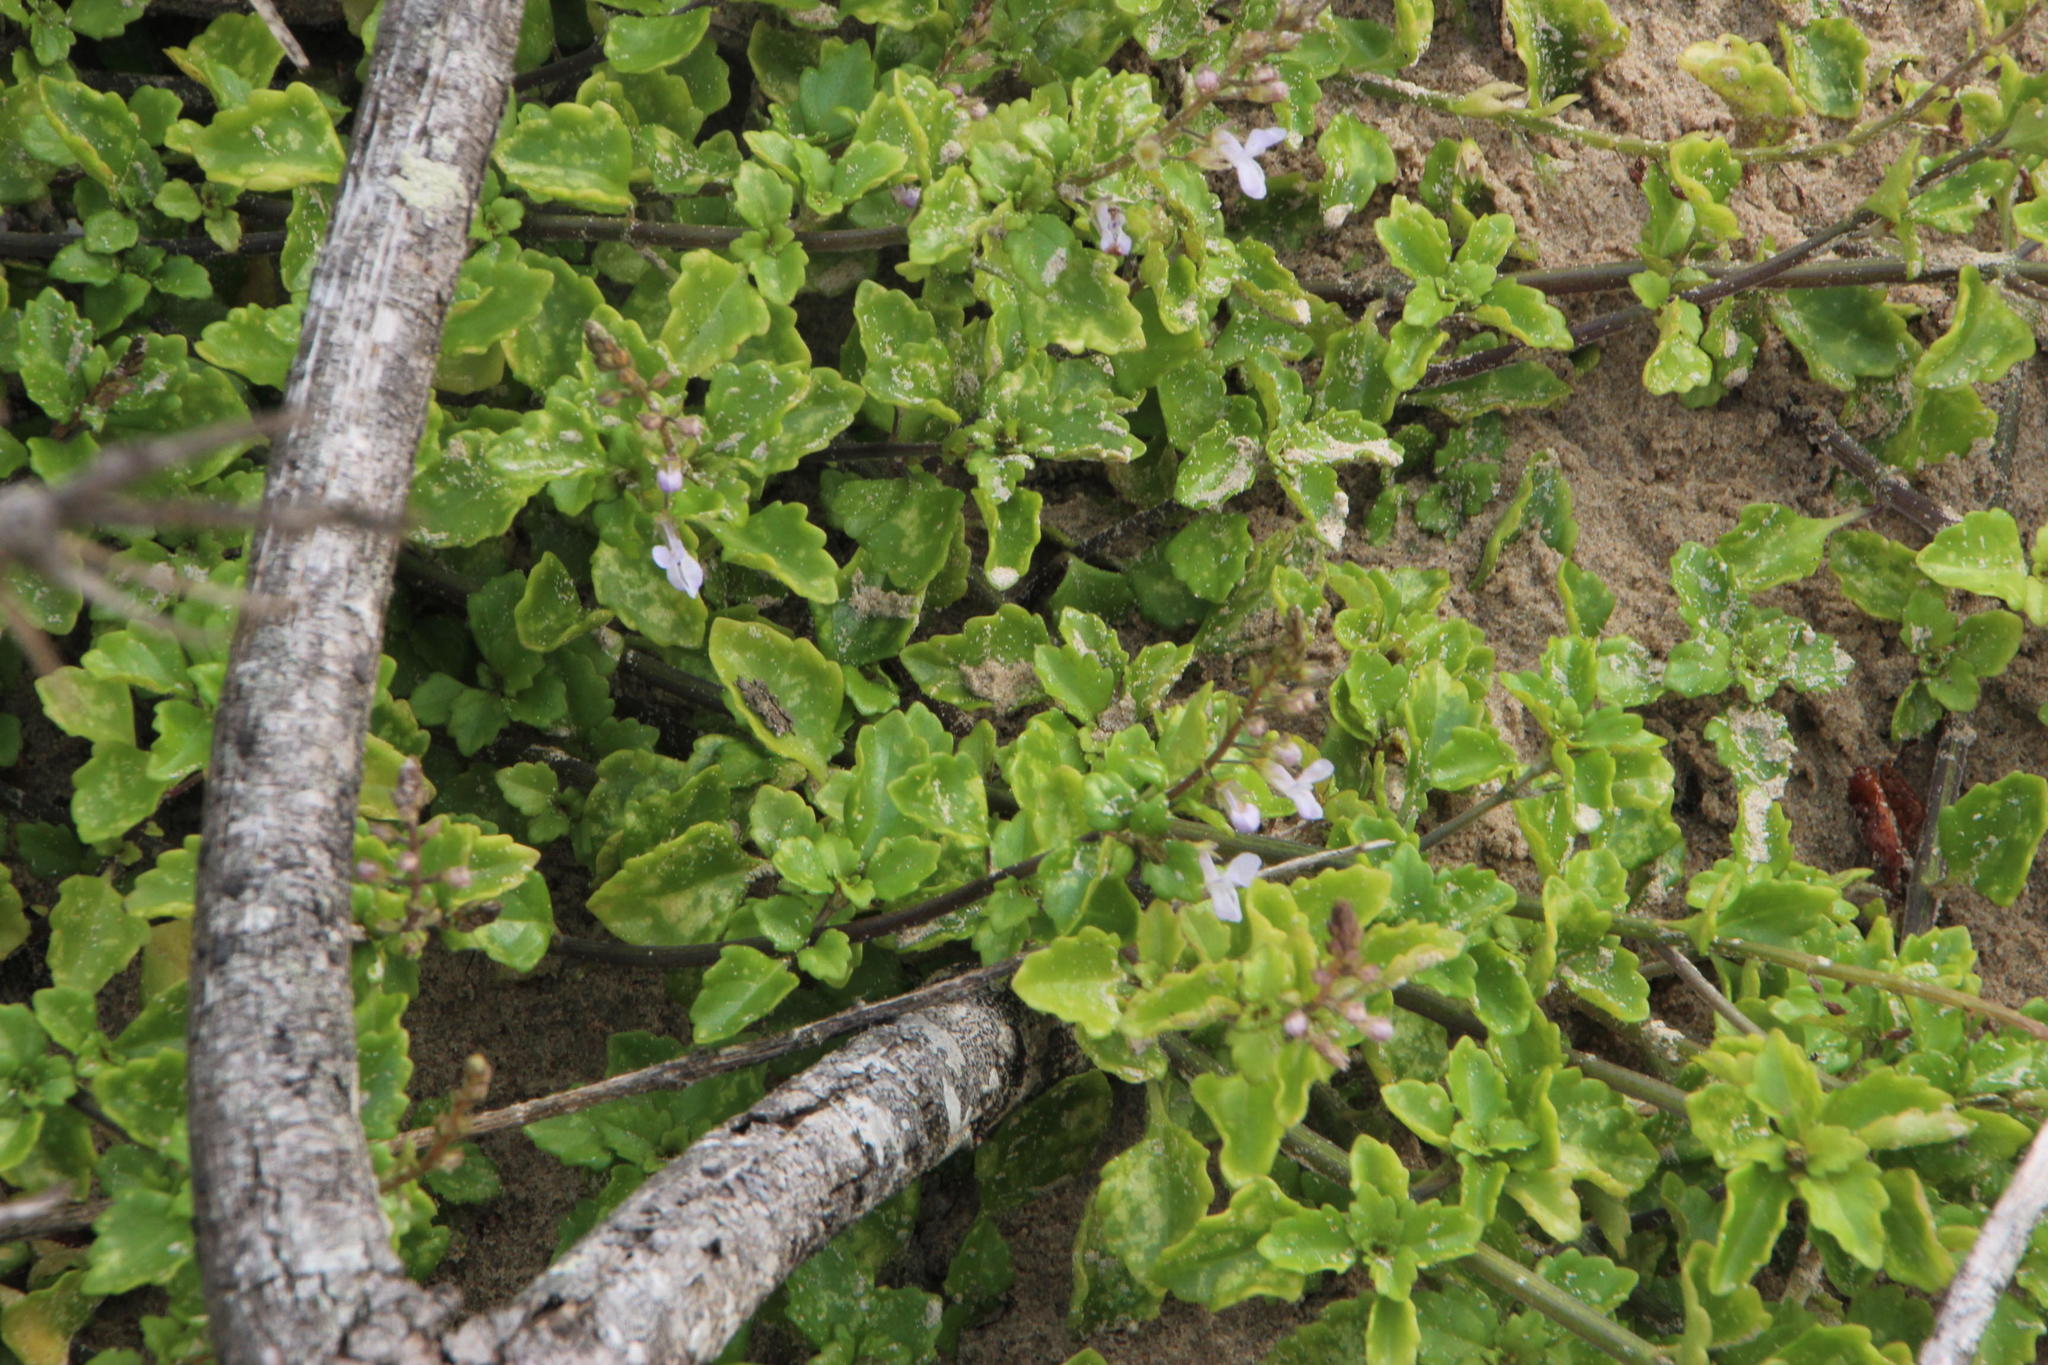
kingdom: Plantae
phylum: Tracheophyta
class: Magnoliopsida
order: Lamiales
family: Lamiaceae
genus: Plectranthus
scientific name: Plectranthus lucidus
